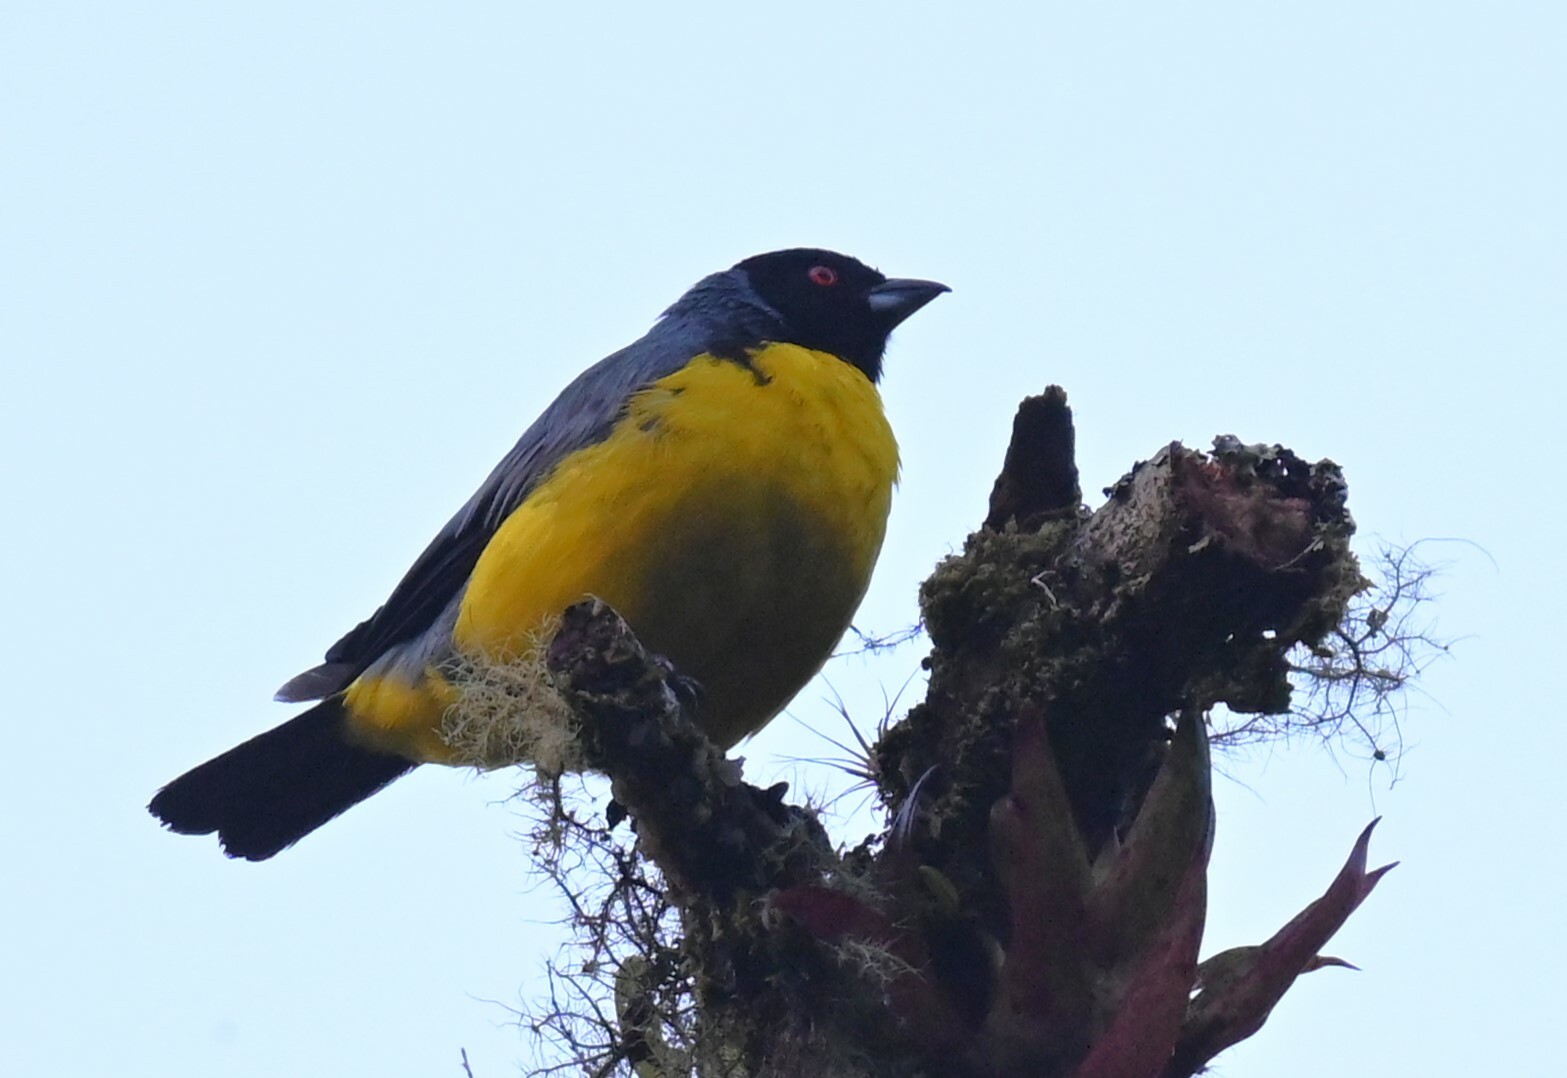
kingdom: Animalia
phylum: Chordata
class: Aves
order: Passeriformes
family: Thraupidae
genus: Buthraupis
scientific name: Buthraupis montana
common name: Hooded mountain tanager
